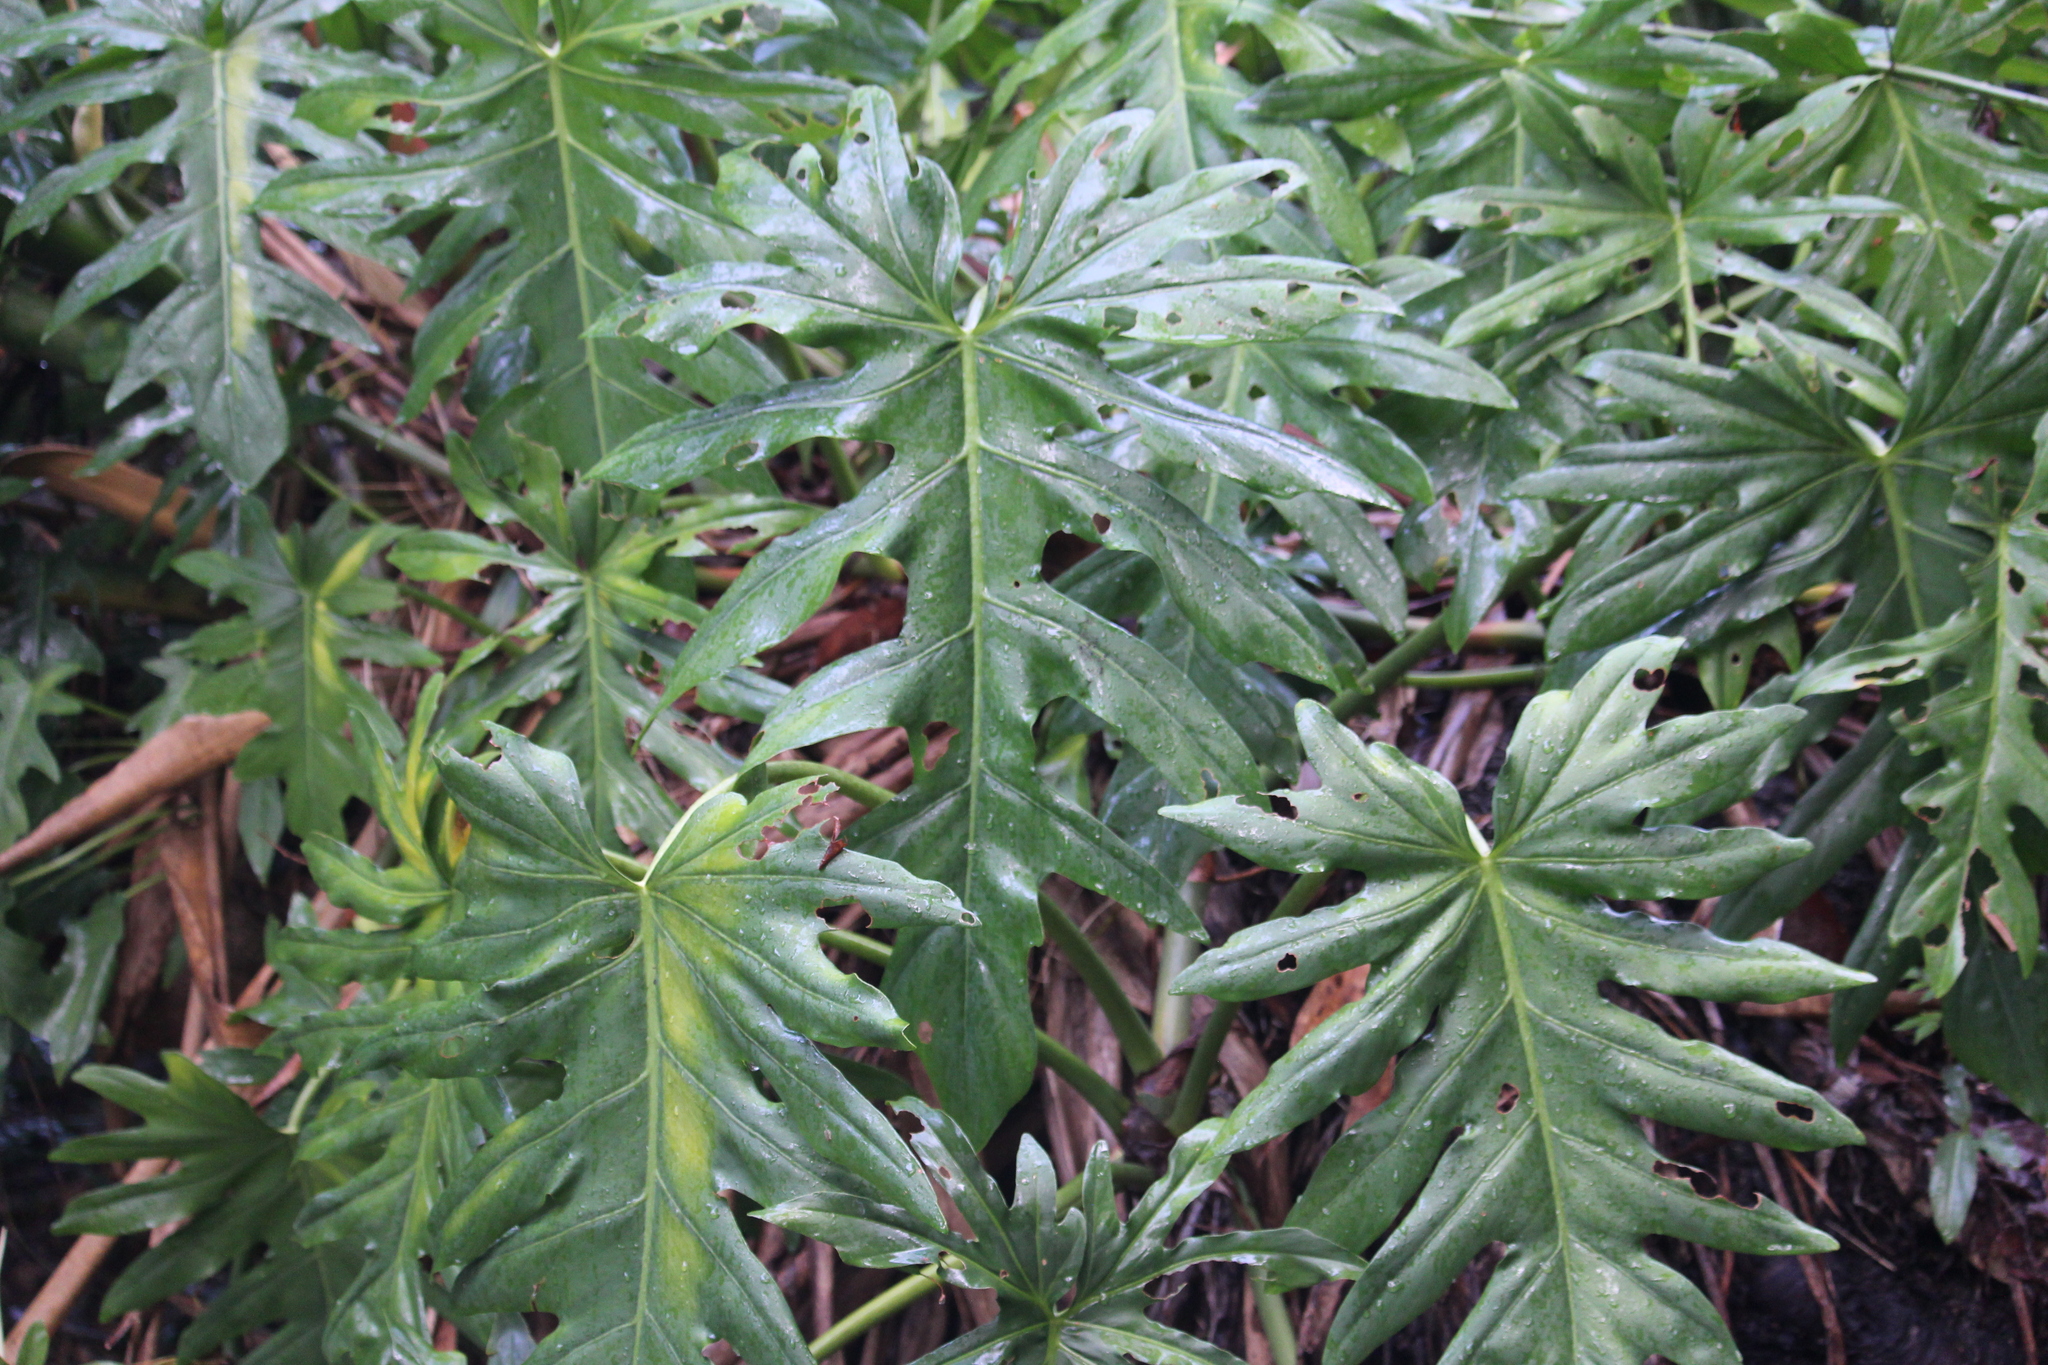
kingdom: Plantae
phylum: Tracheophyta
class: Liliopsida
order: Alismatales
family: Araceae
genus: Philodendron
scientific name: Philodendron radiatum
